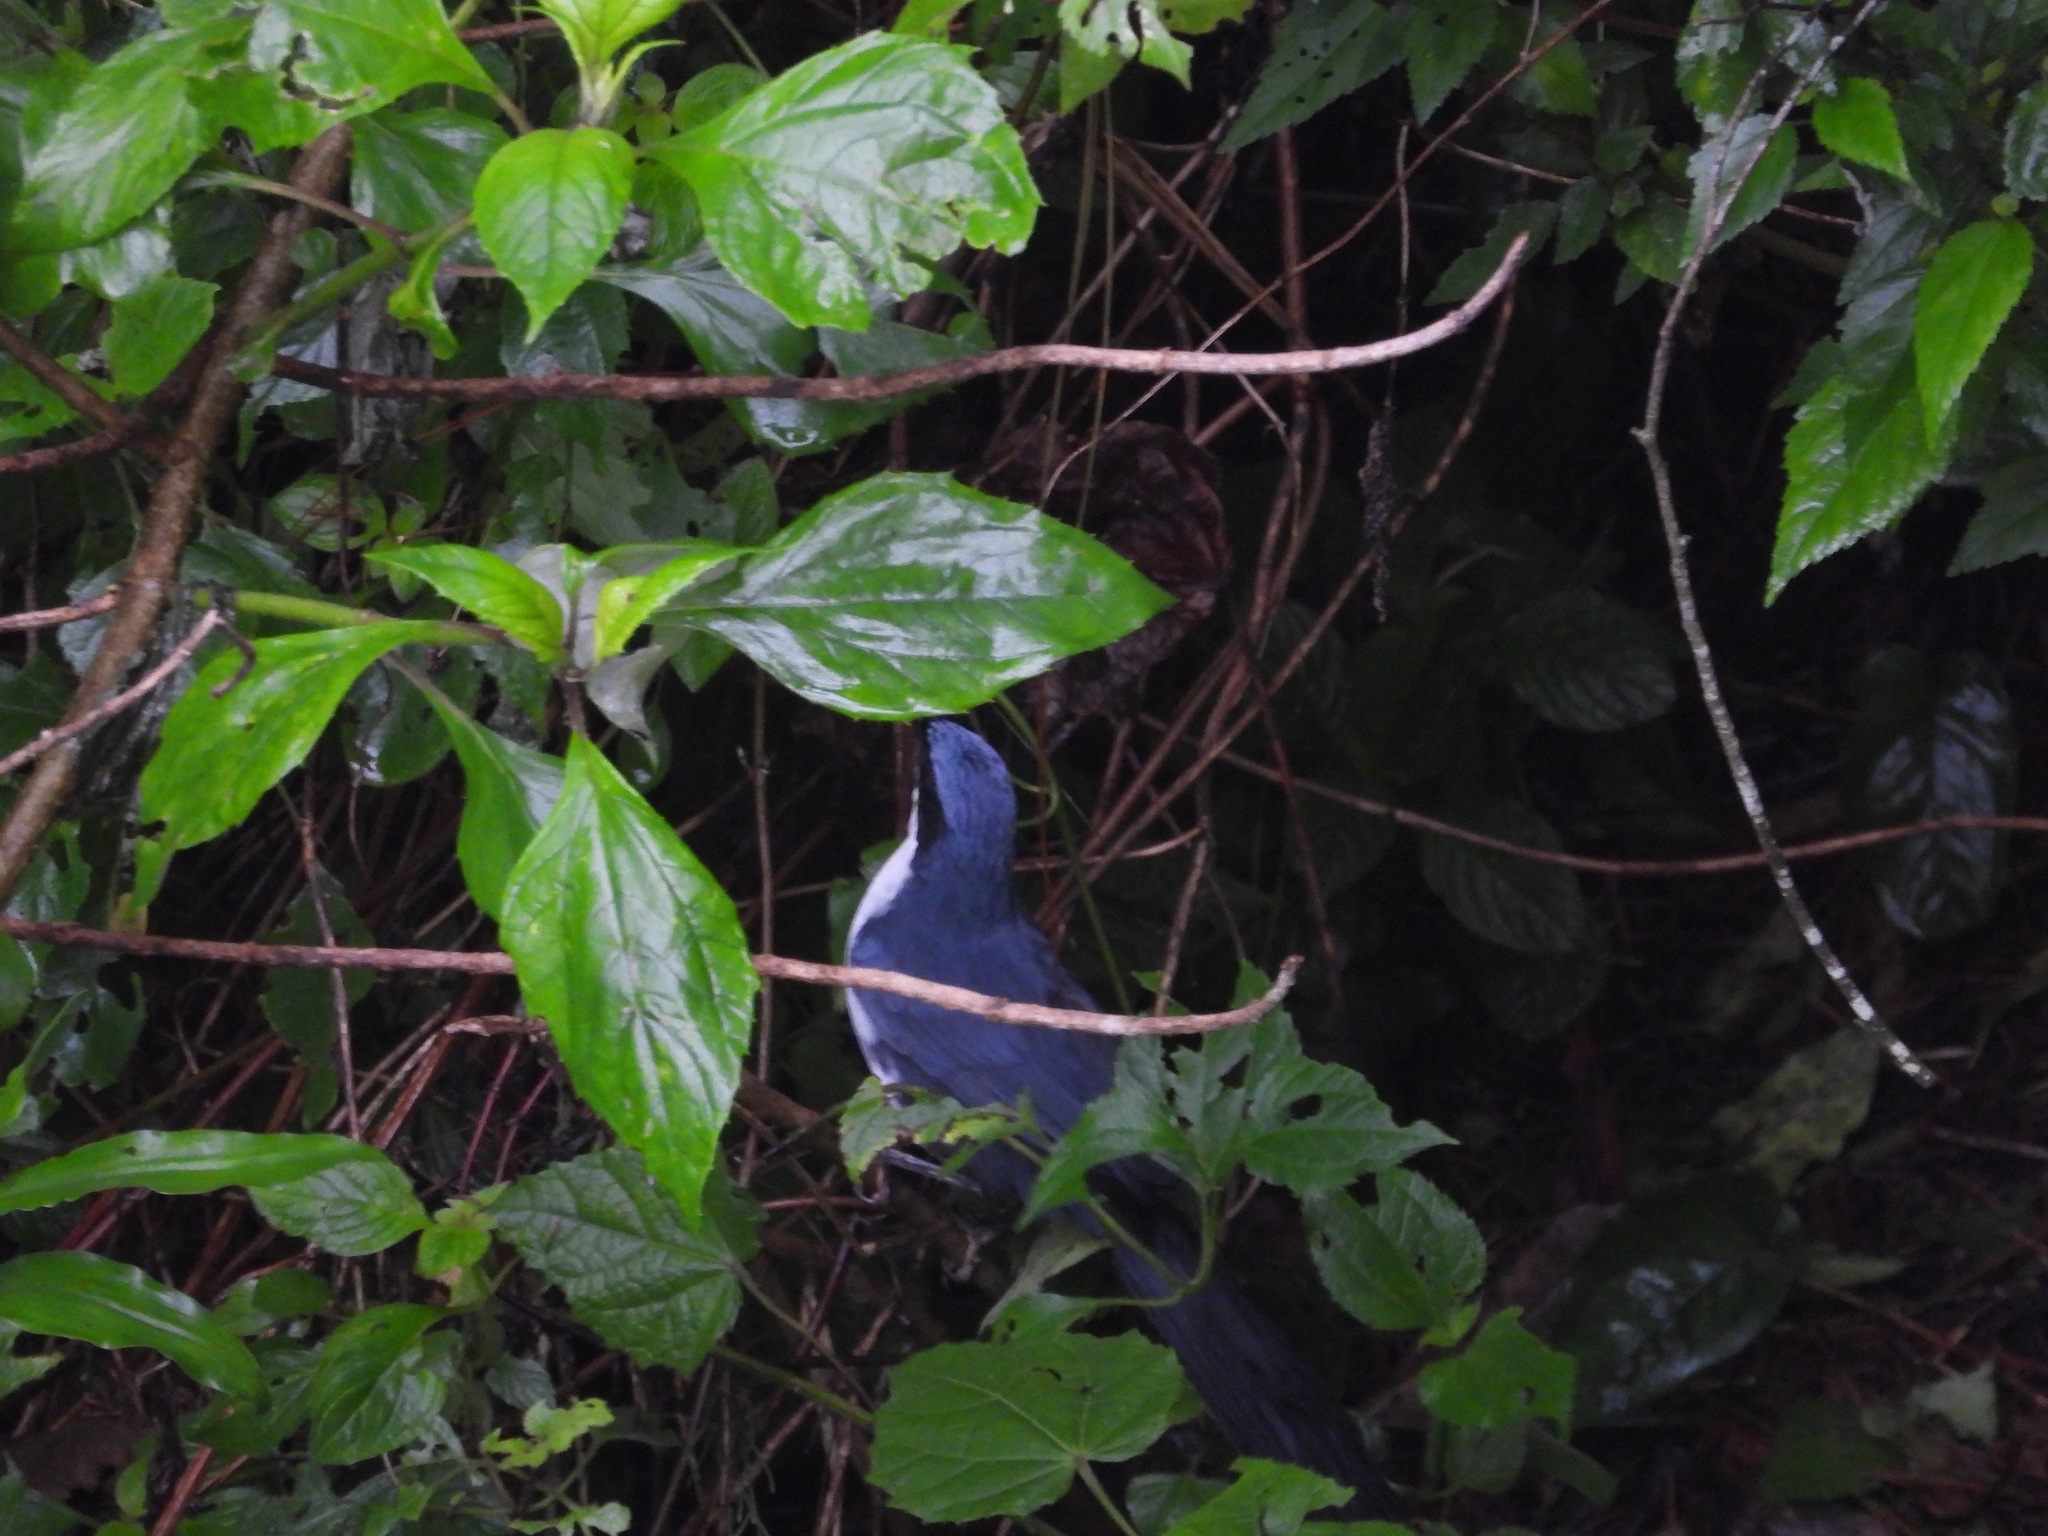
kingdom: Animalia
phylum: Chordata
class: Aves
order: Passeriformes
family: Mimidae
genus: Melanotis
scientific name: Melanotis hypoleucus
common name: Blue-and-white mockingbird
